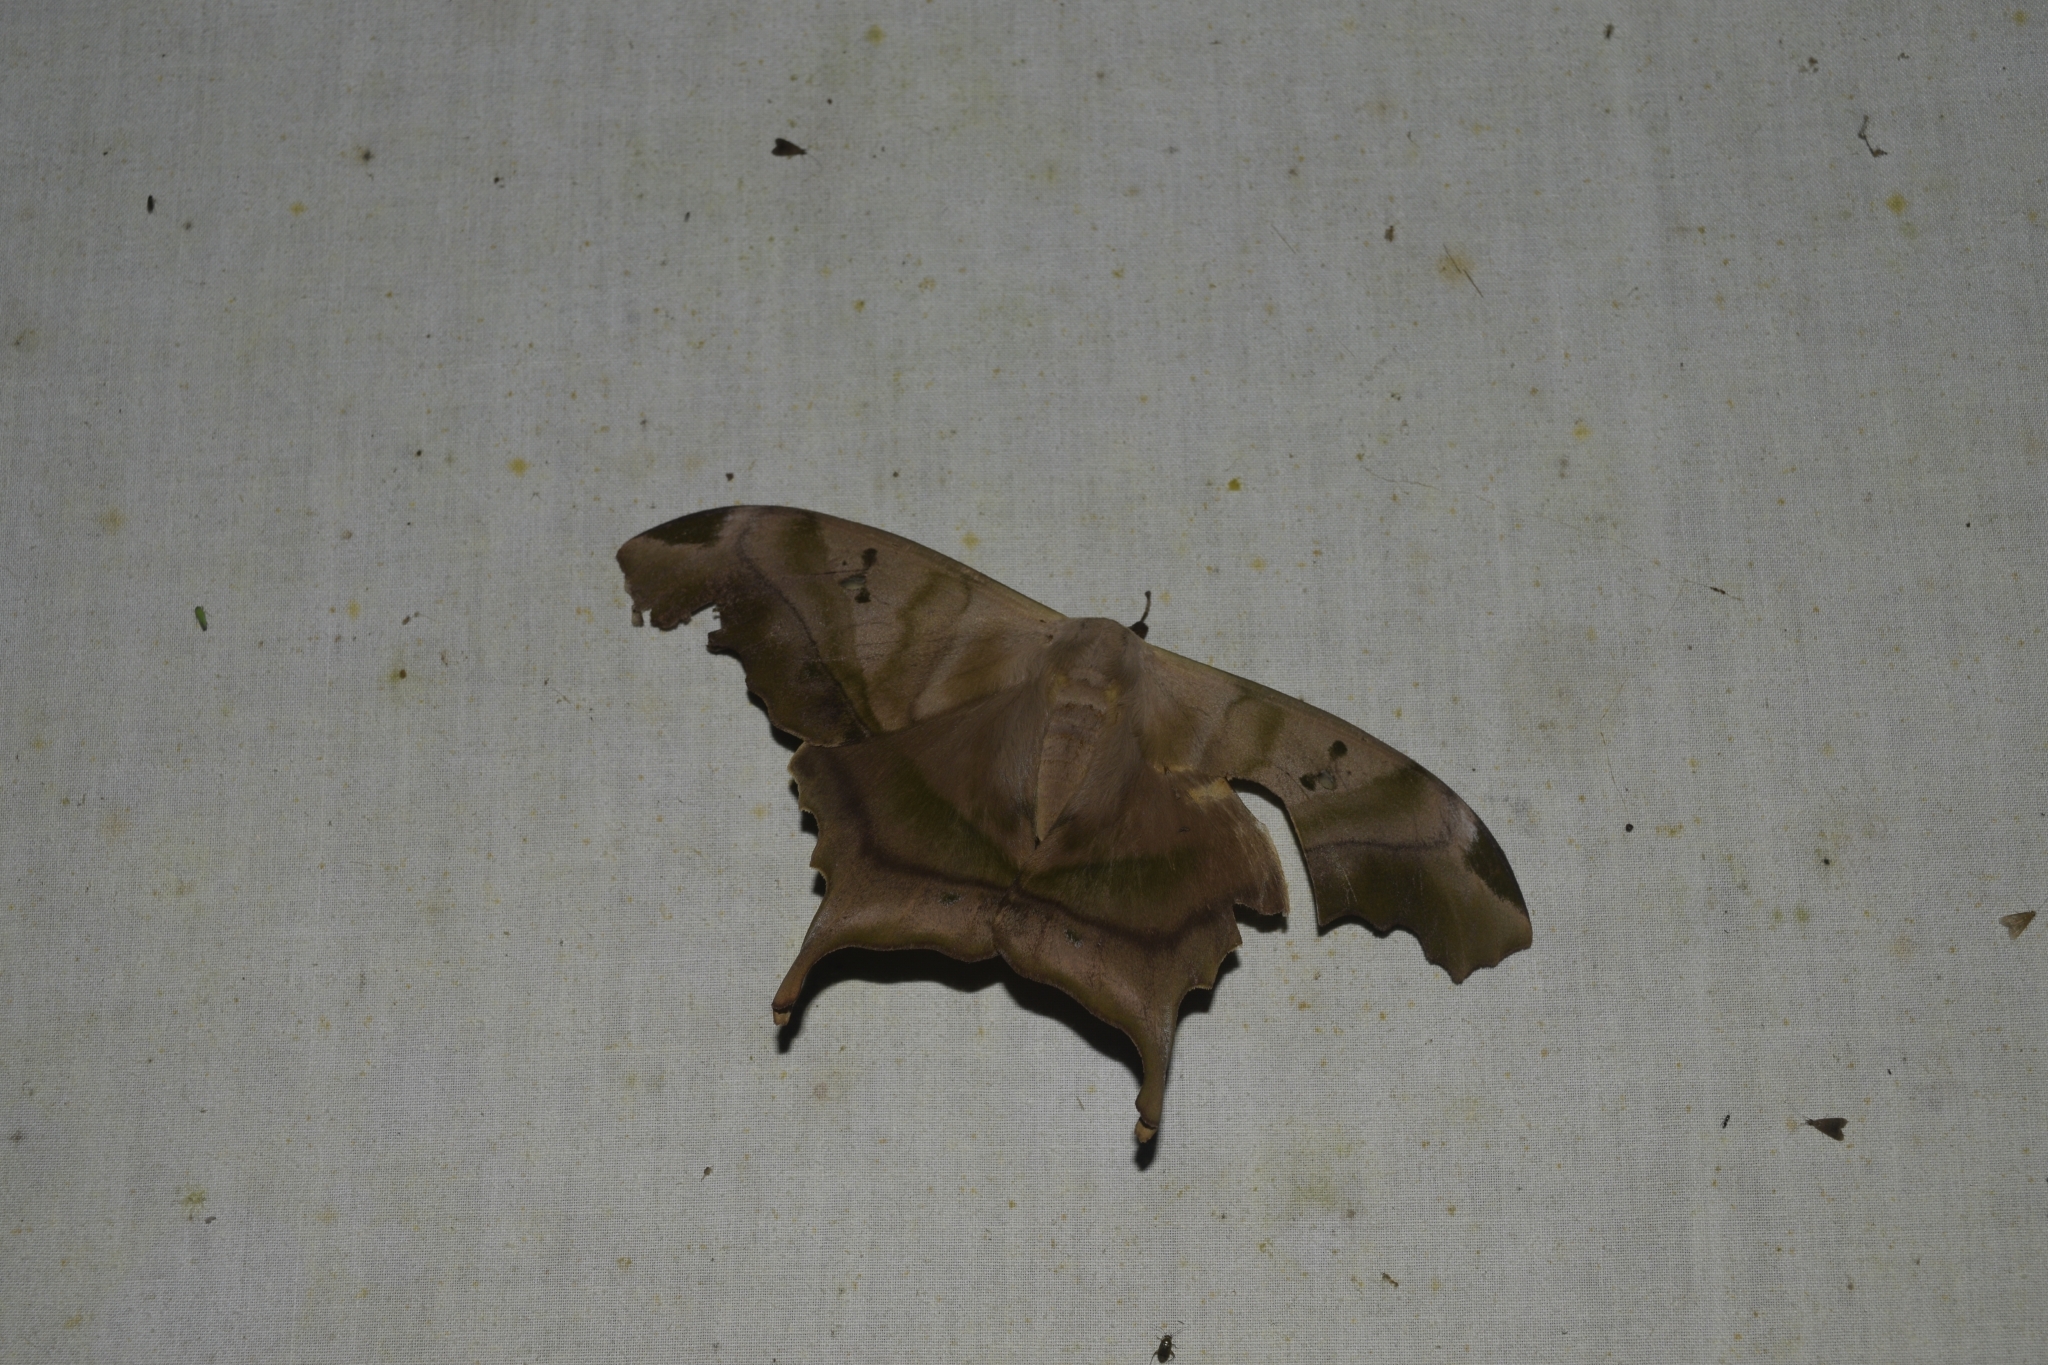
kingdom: Animalia
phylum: Arthropoda
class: Insecta
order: Lepidoptera
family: Saturniidae
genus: Titaea
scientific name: Titaea tamerlan
